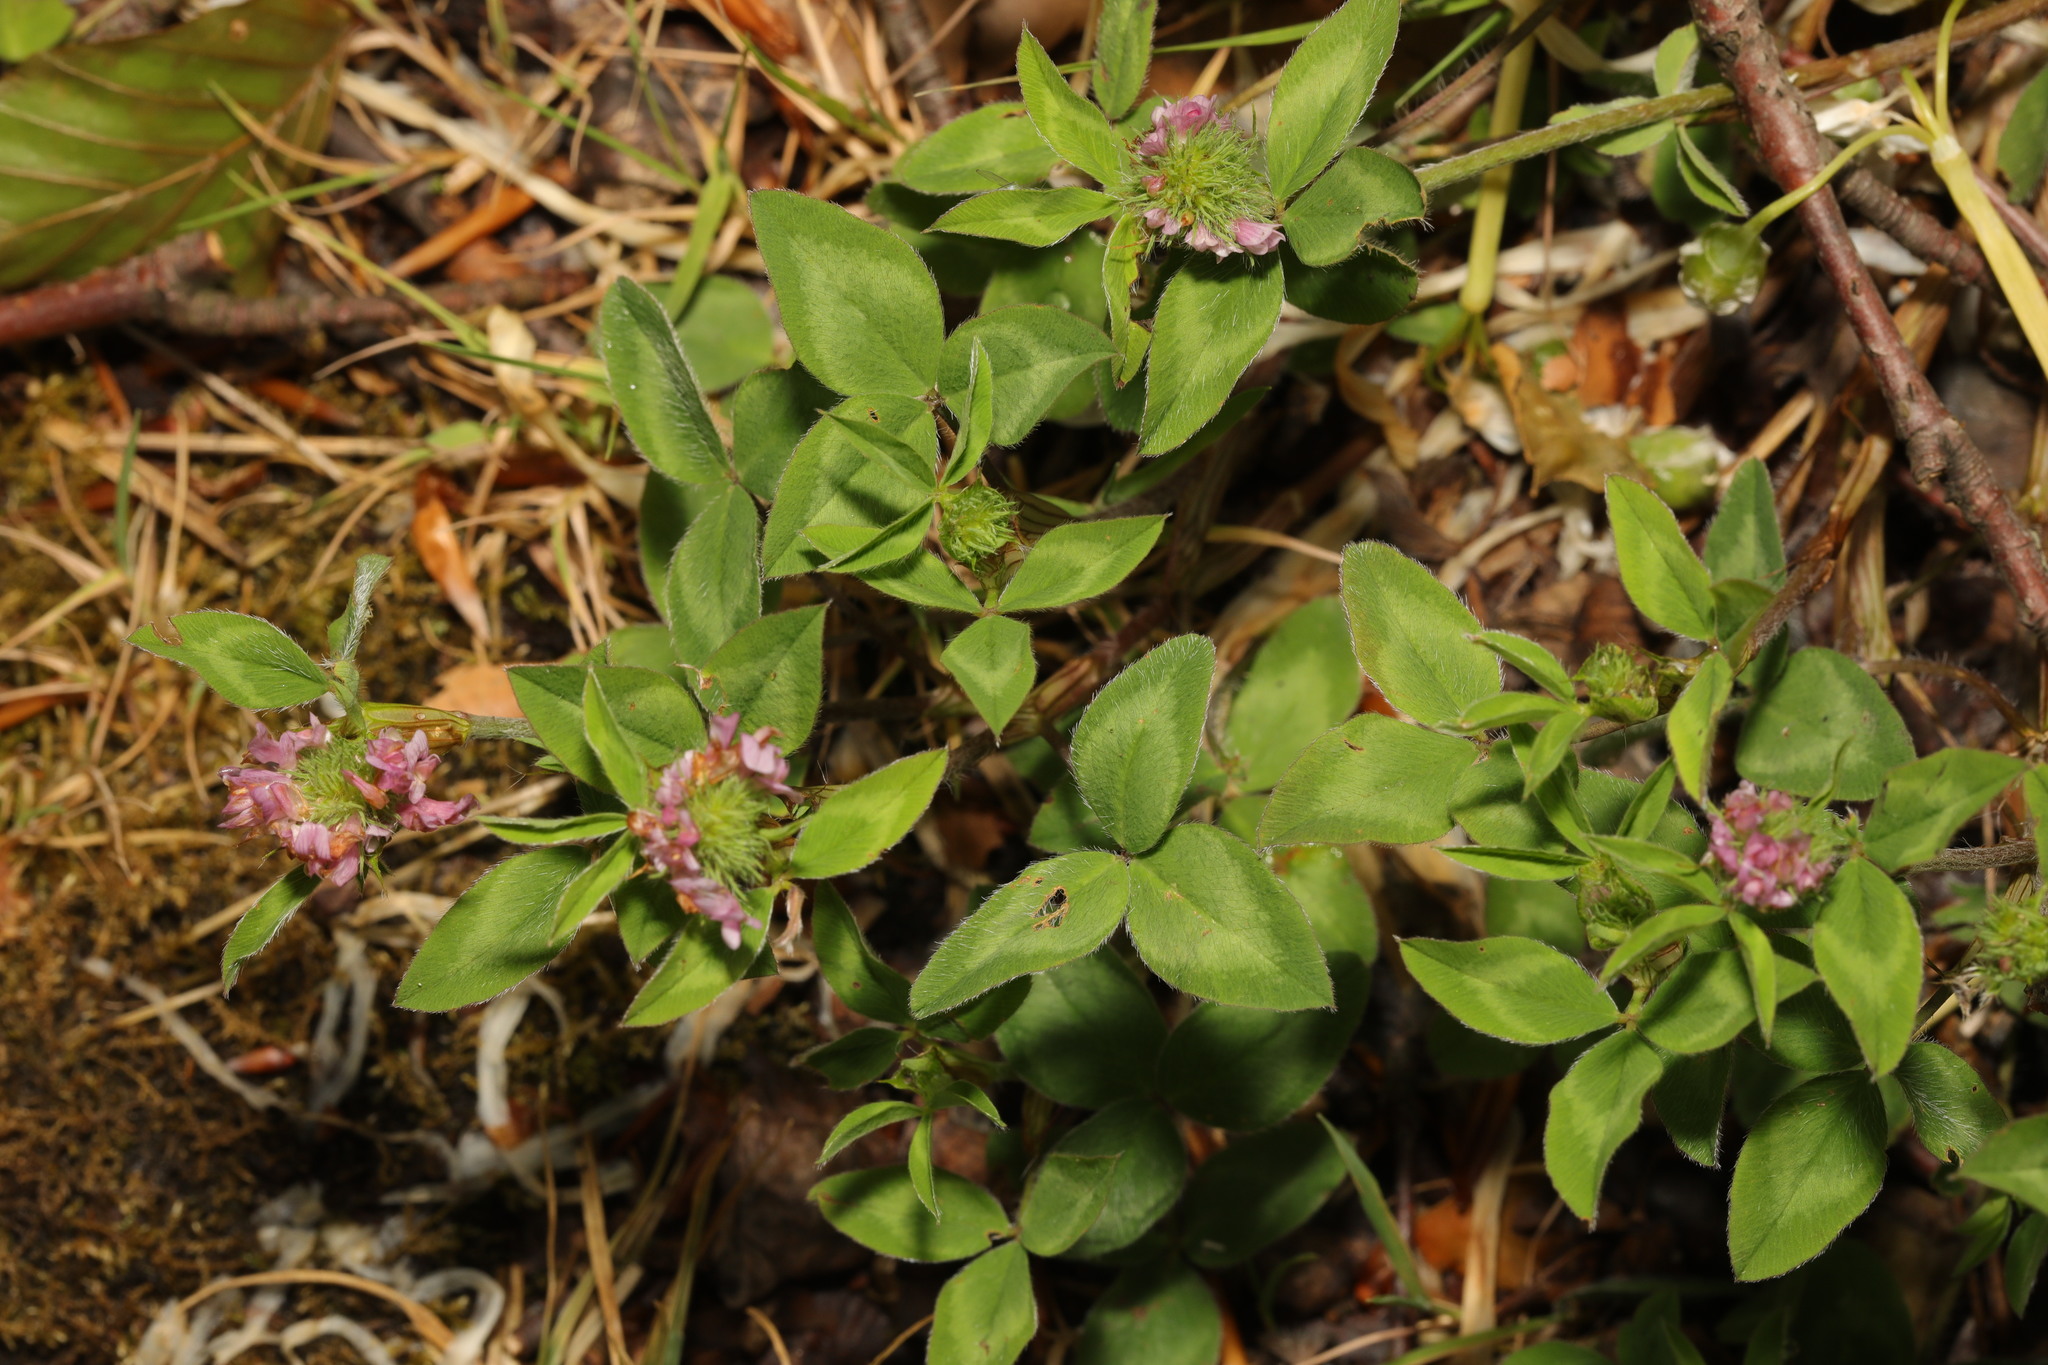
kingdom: Plantae
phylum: Tracheophyta
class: Magnoliopsida
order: Fabales
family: Fabaceae
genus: Trifolium
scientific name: Trifolium pratense
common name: Red clover
